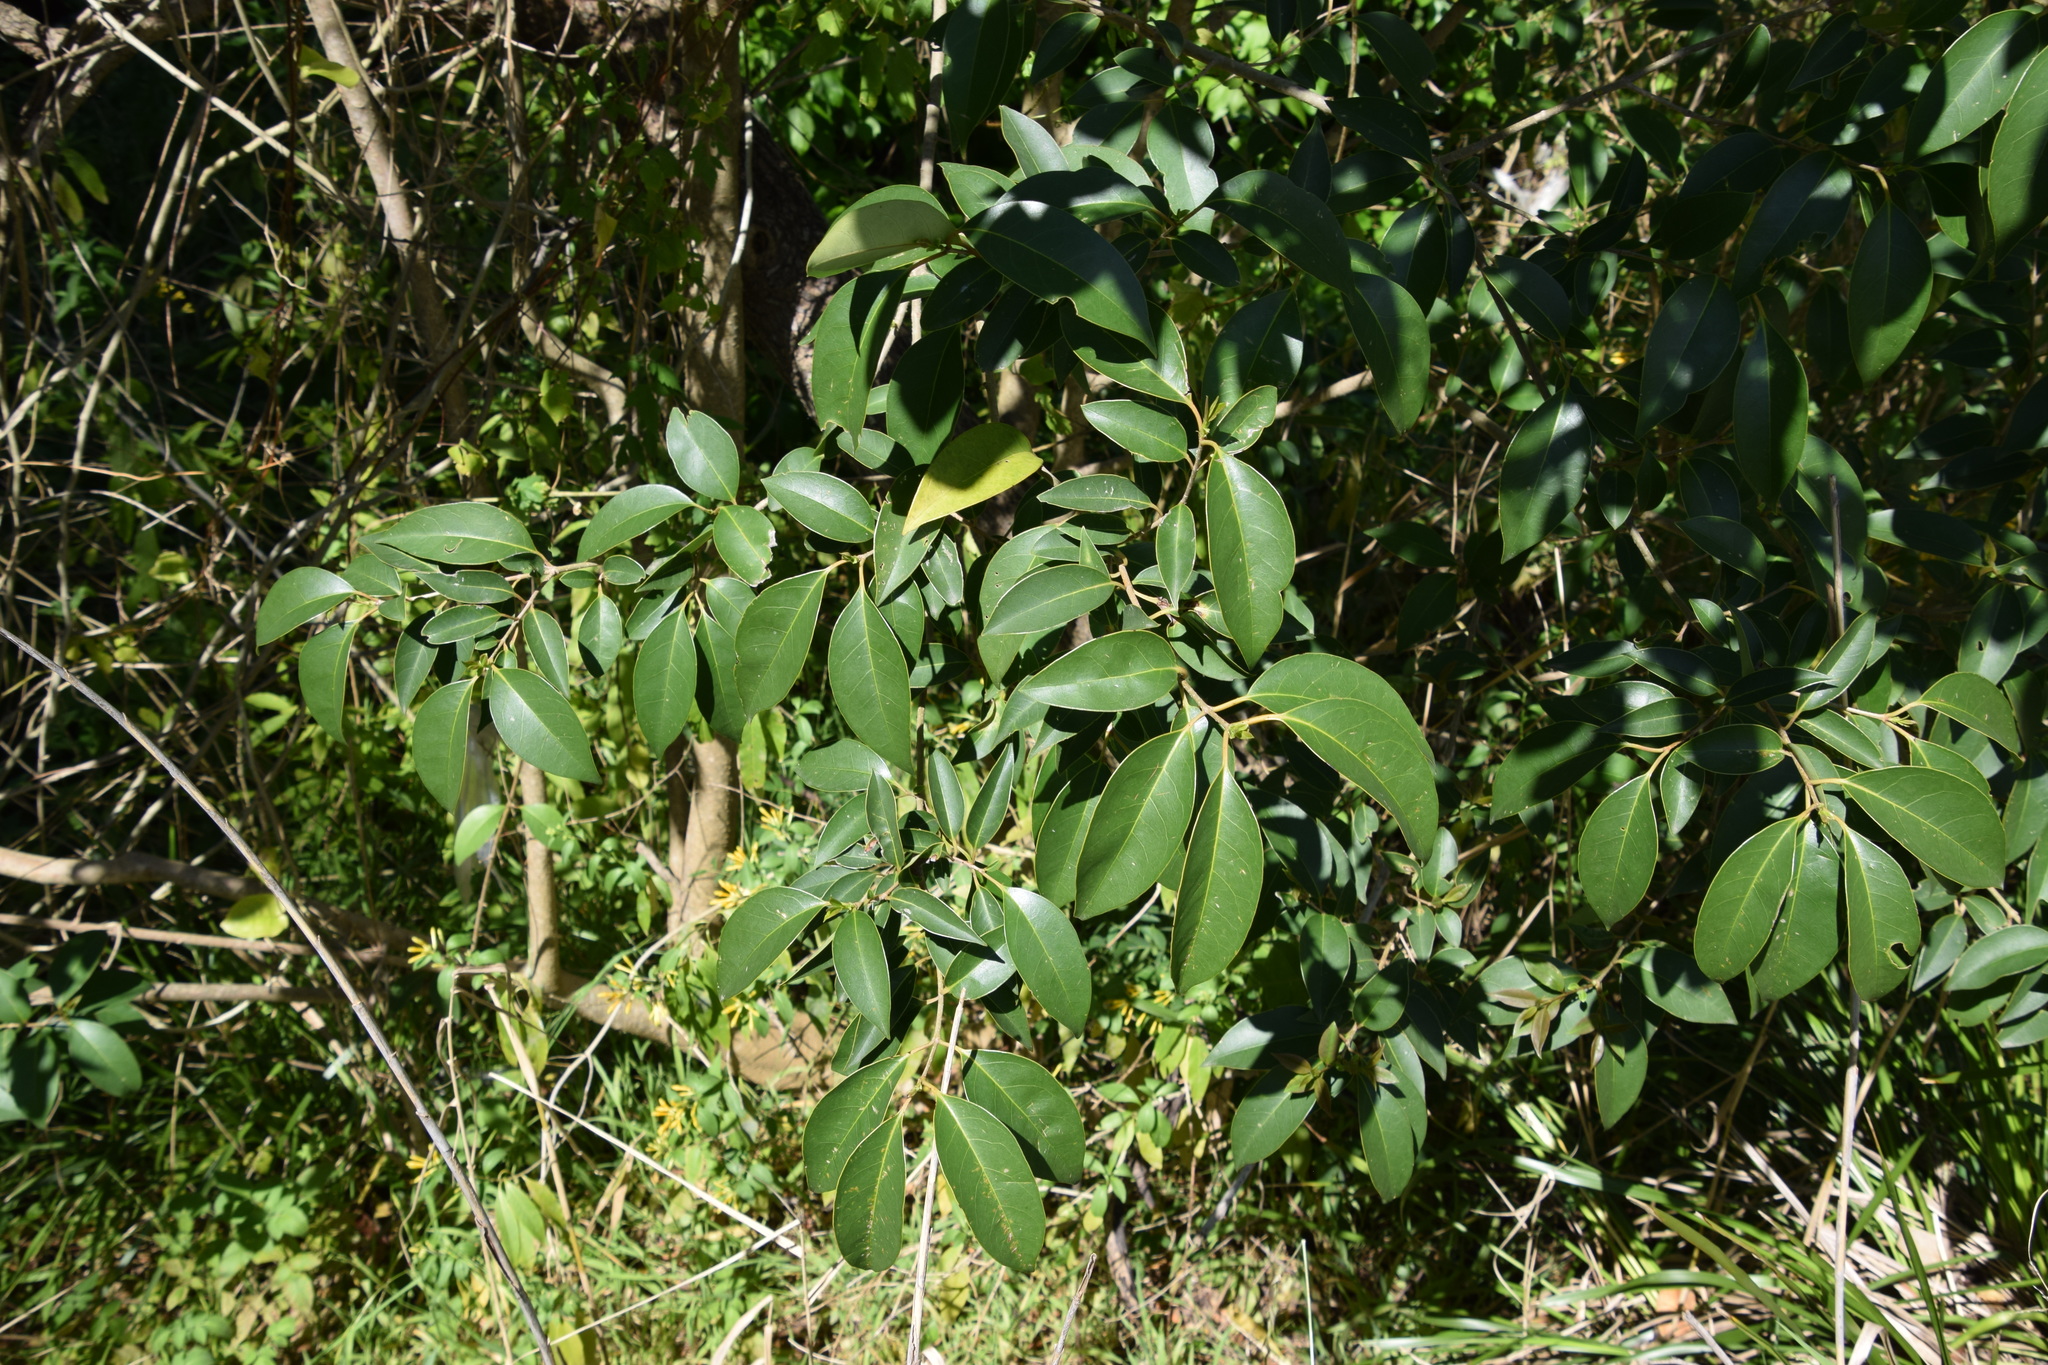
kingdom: Plantae
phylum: Tracheophyta
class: Magnoliopsida
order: Lamiales
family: Oleaceae
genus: Ligustrum
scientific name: Ligustrum lucidum
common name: Glossy privet
